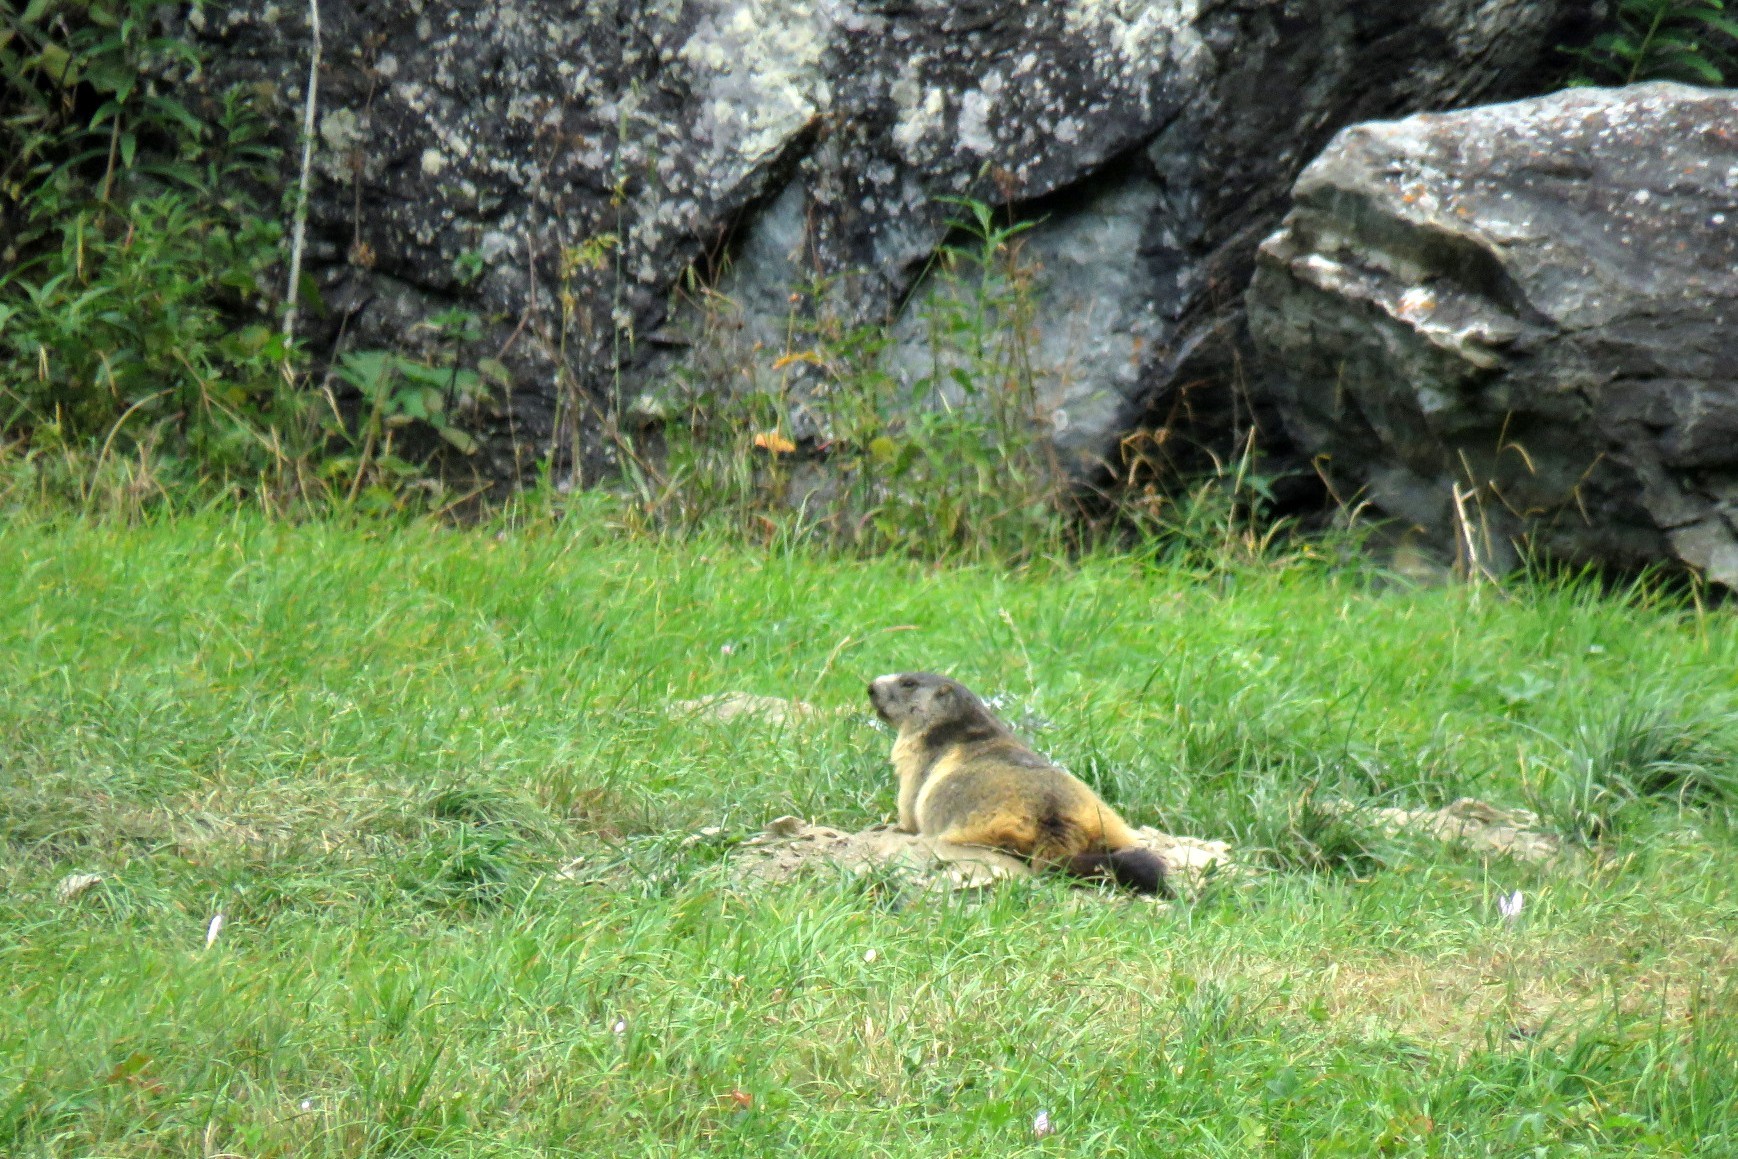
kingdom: Animalia
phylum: Chordata
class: Mammalia
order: Rodentia
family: Sciuridae
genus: Marmota
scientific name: Marmota marmota
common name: Alpine marmot
